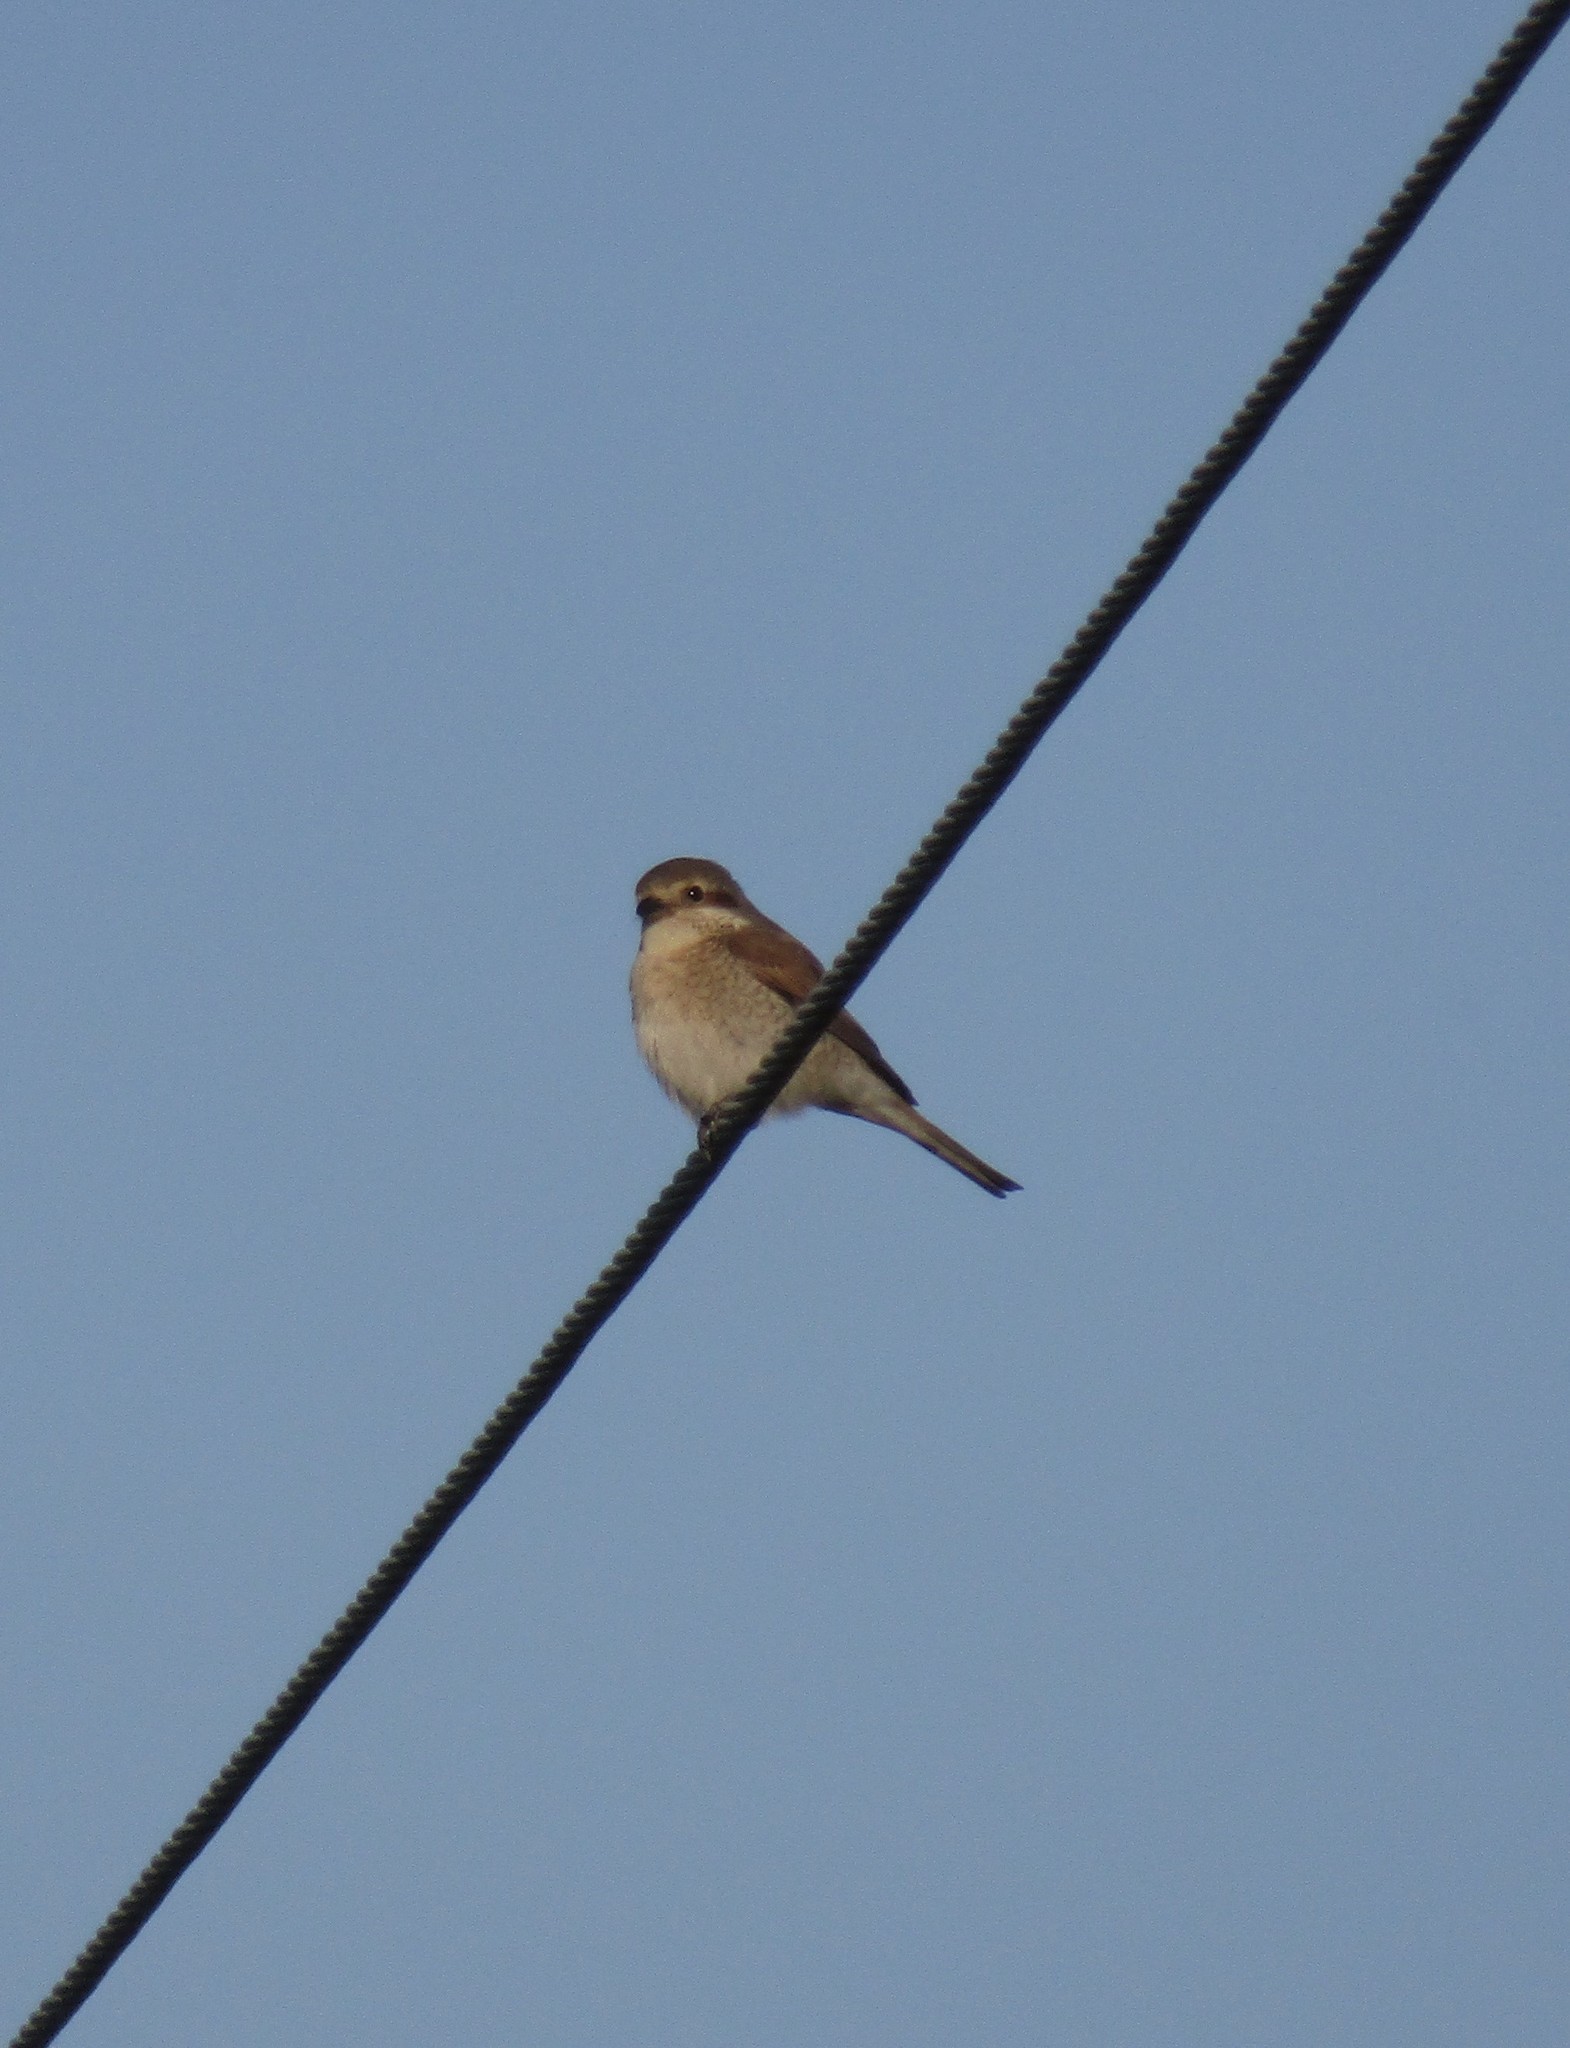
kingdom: Animalia
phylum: Chordata
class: Aves
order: Passeriformes
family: Laniidae
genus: Lanius
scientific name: Lanius collurio
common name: Red-backed shrike
